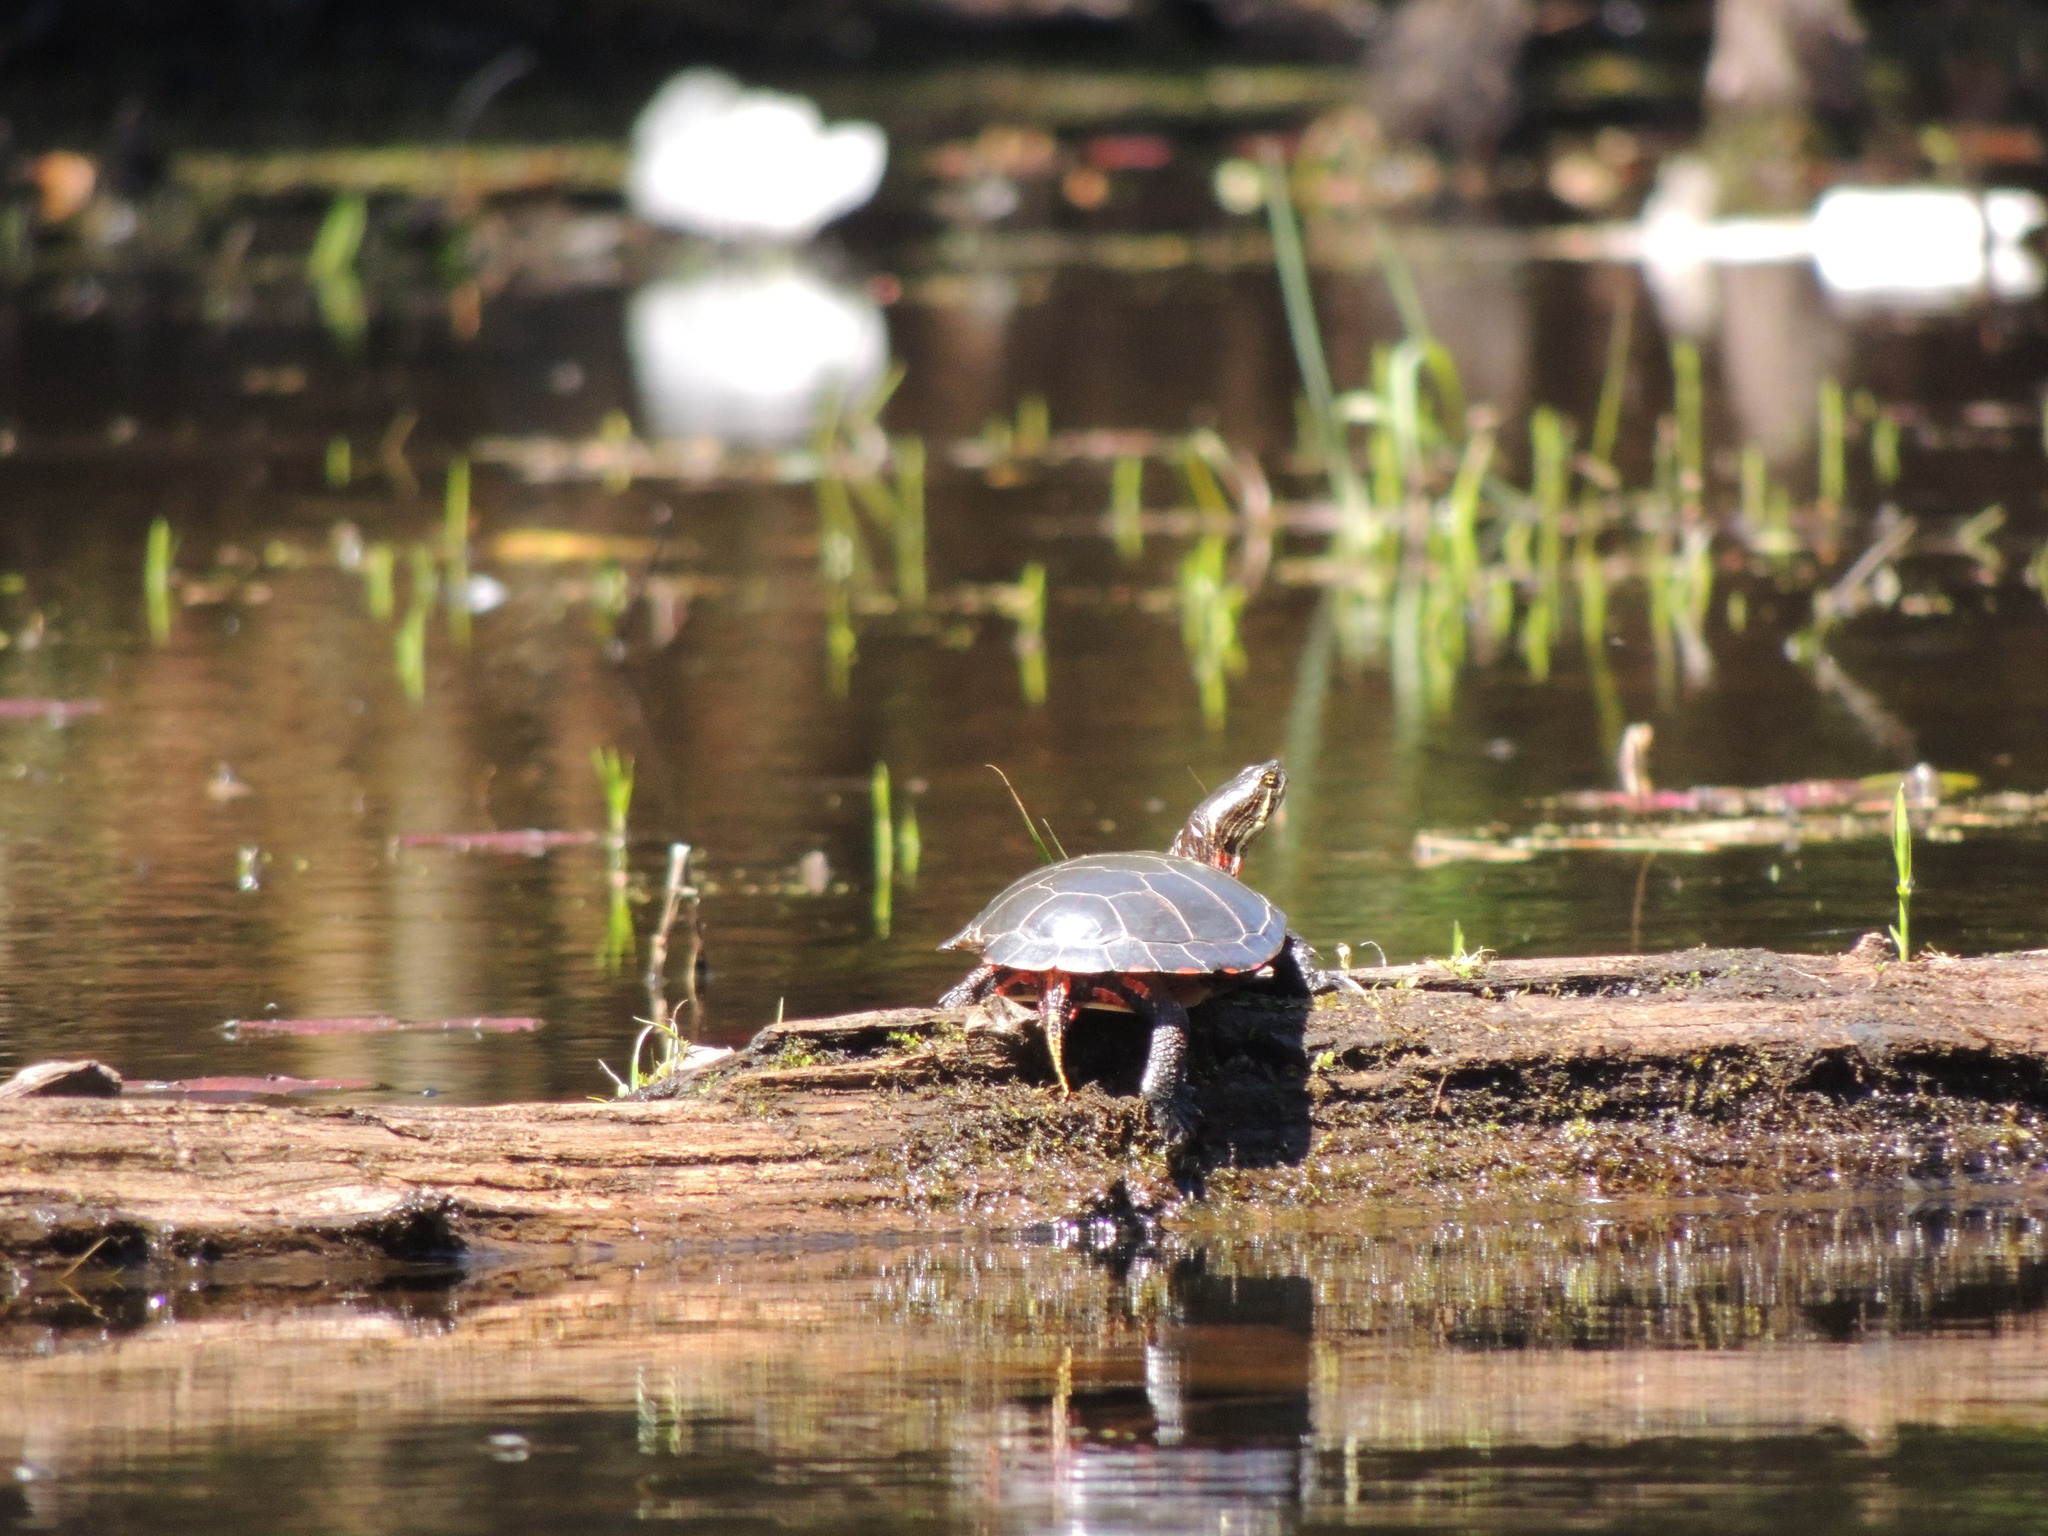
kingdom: Animalia
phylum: Chordata
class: Testudines
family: Emydidae
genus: Chrysemys
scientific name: Chrysemys picta
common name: Painted turtle
